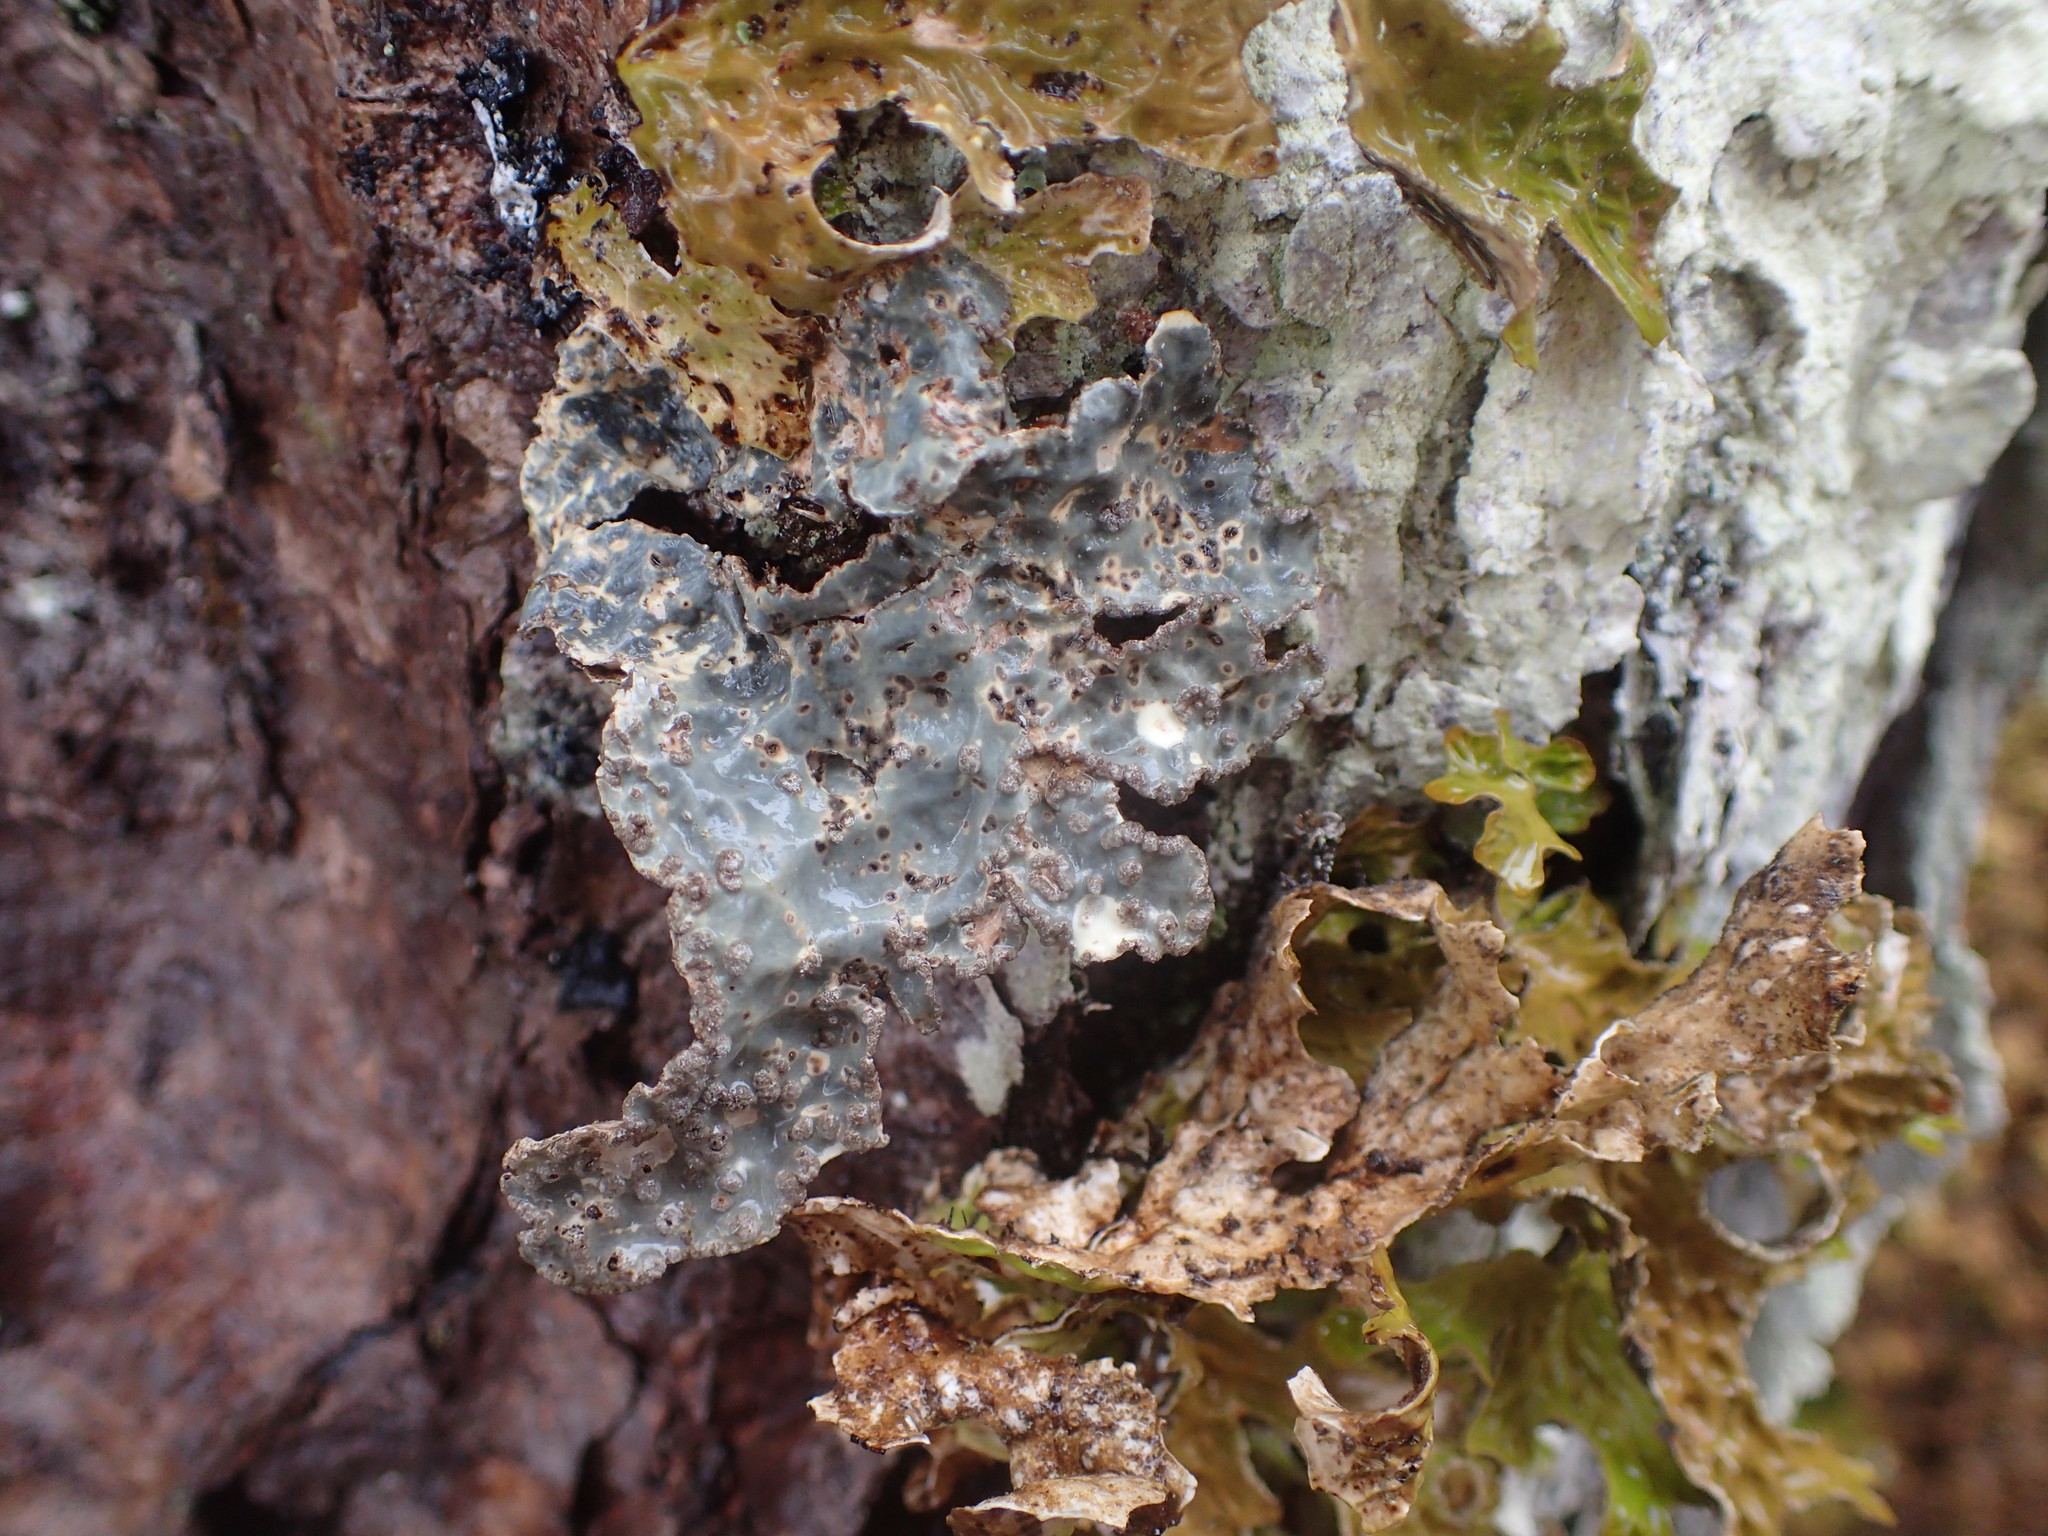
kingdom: Fungi
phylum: Ascomycota
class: Lecanoromycetes
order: Peltigerales
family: Lobariaceae
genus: Lobarina
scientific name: Lobarina scrobiculata
